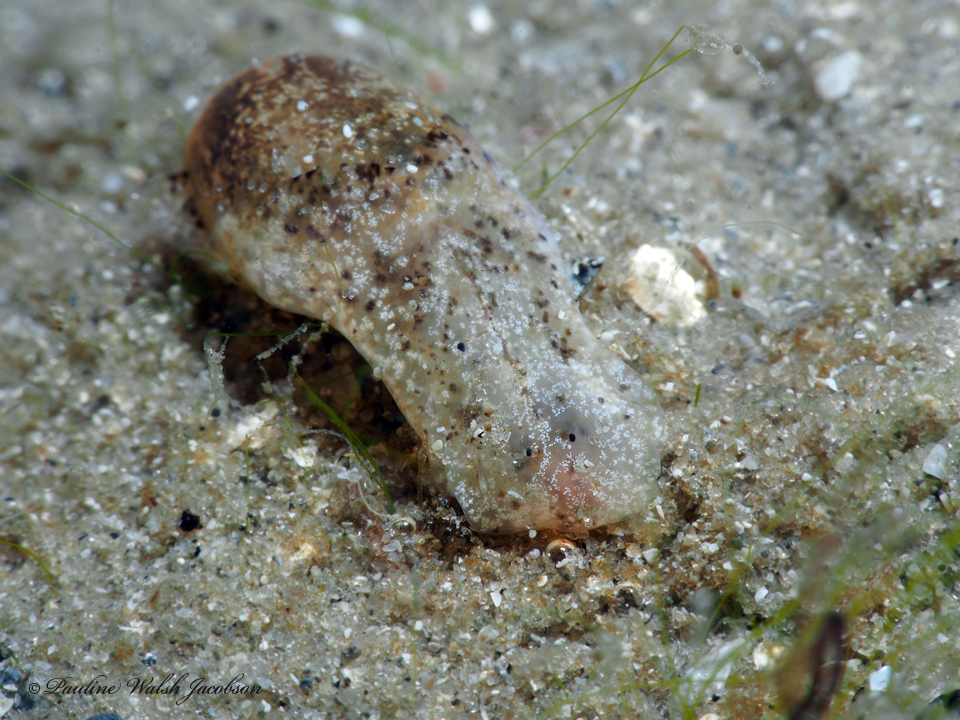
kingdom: Animalia
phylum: Mollusca
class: Gastropoda
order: Cephalaspidea
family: Haminoeidae
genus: Haminoea
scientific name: Haminoea elegans
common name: Elegant glassy-bubble
